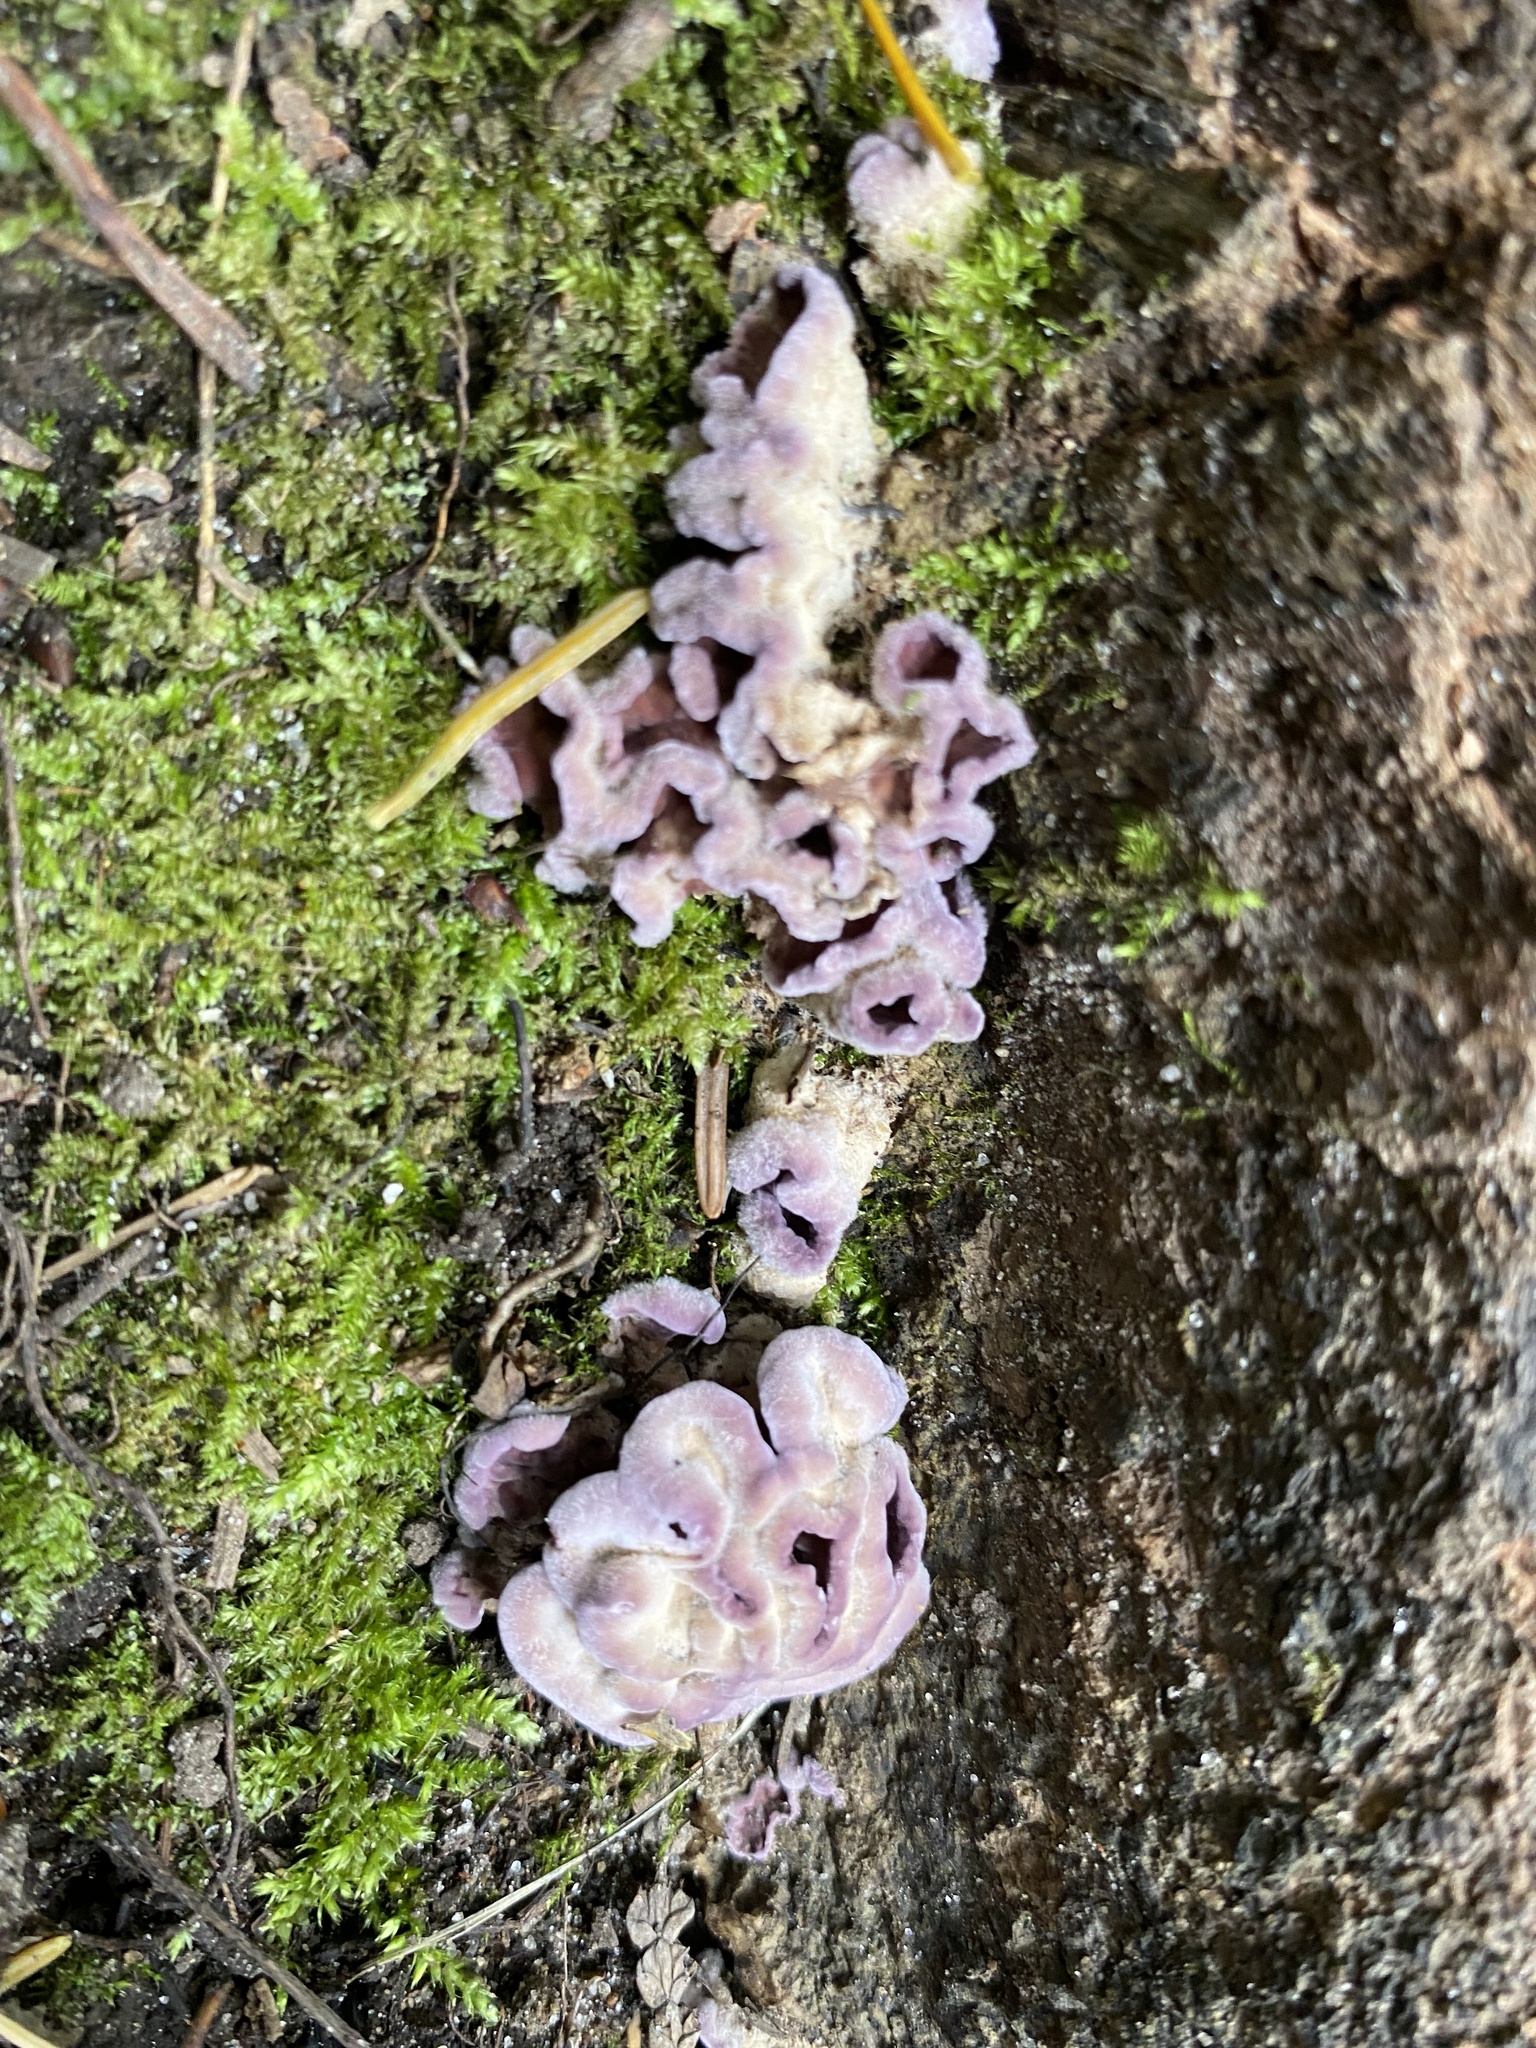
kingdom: Fungi
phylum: Basidiomycota
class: Agaricomycetes
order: Agaricales
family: Cyphellaceae
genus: Chondrostereum
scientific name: Chondrostereum purpureum
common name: Silver leaf disease
